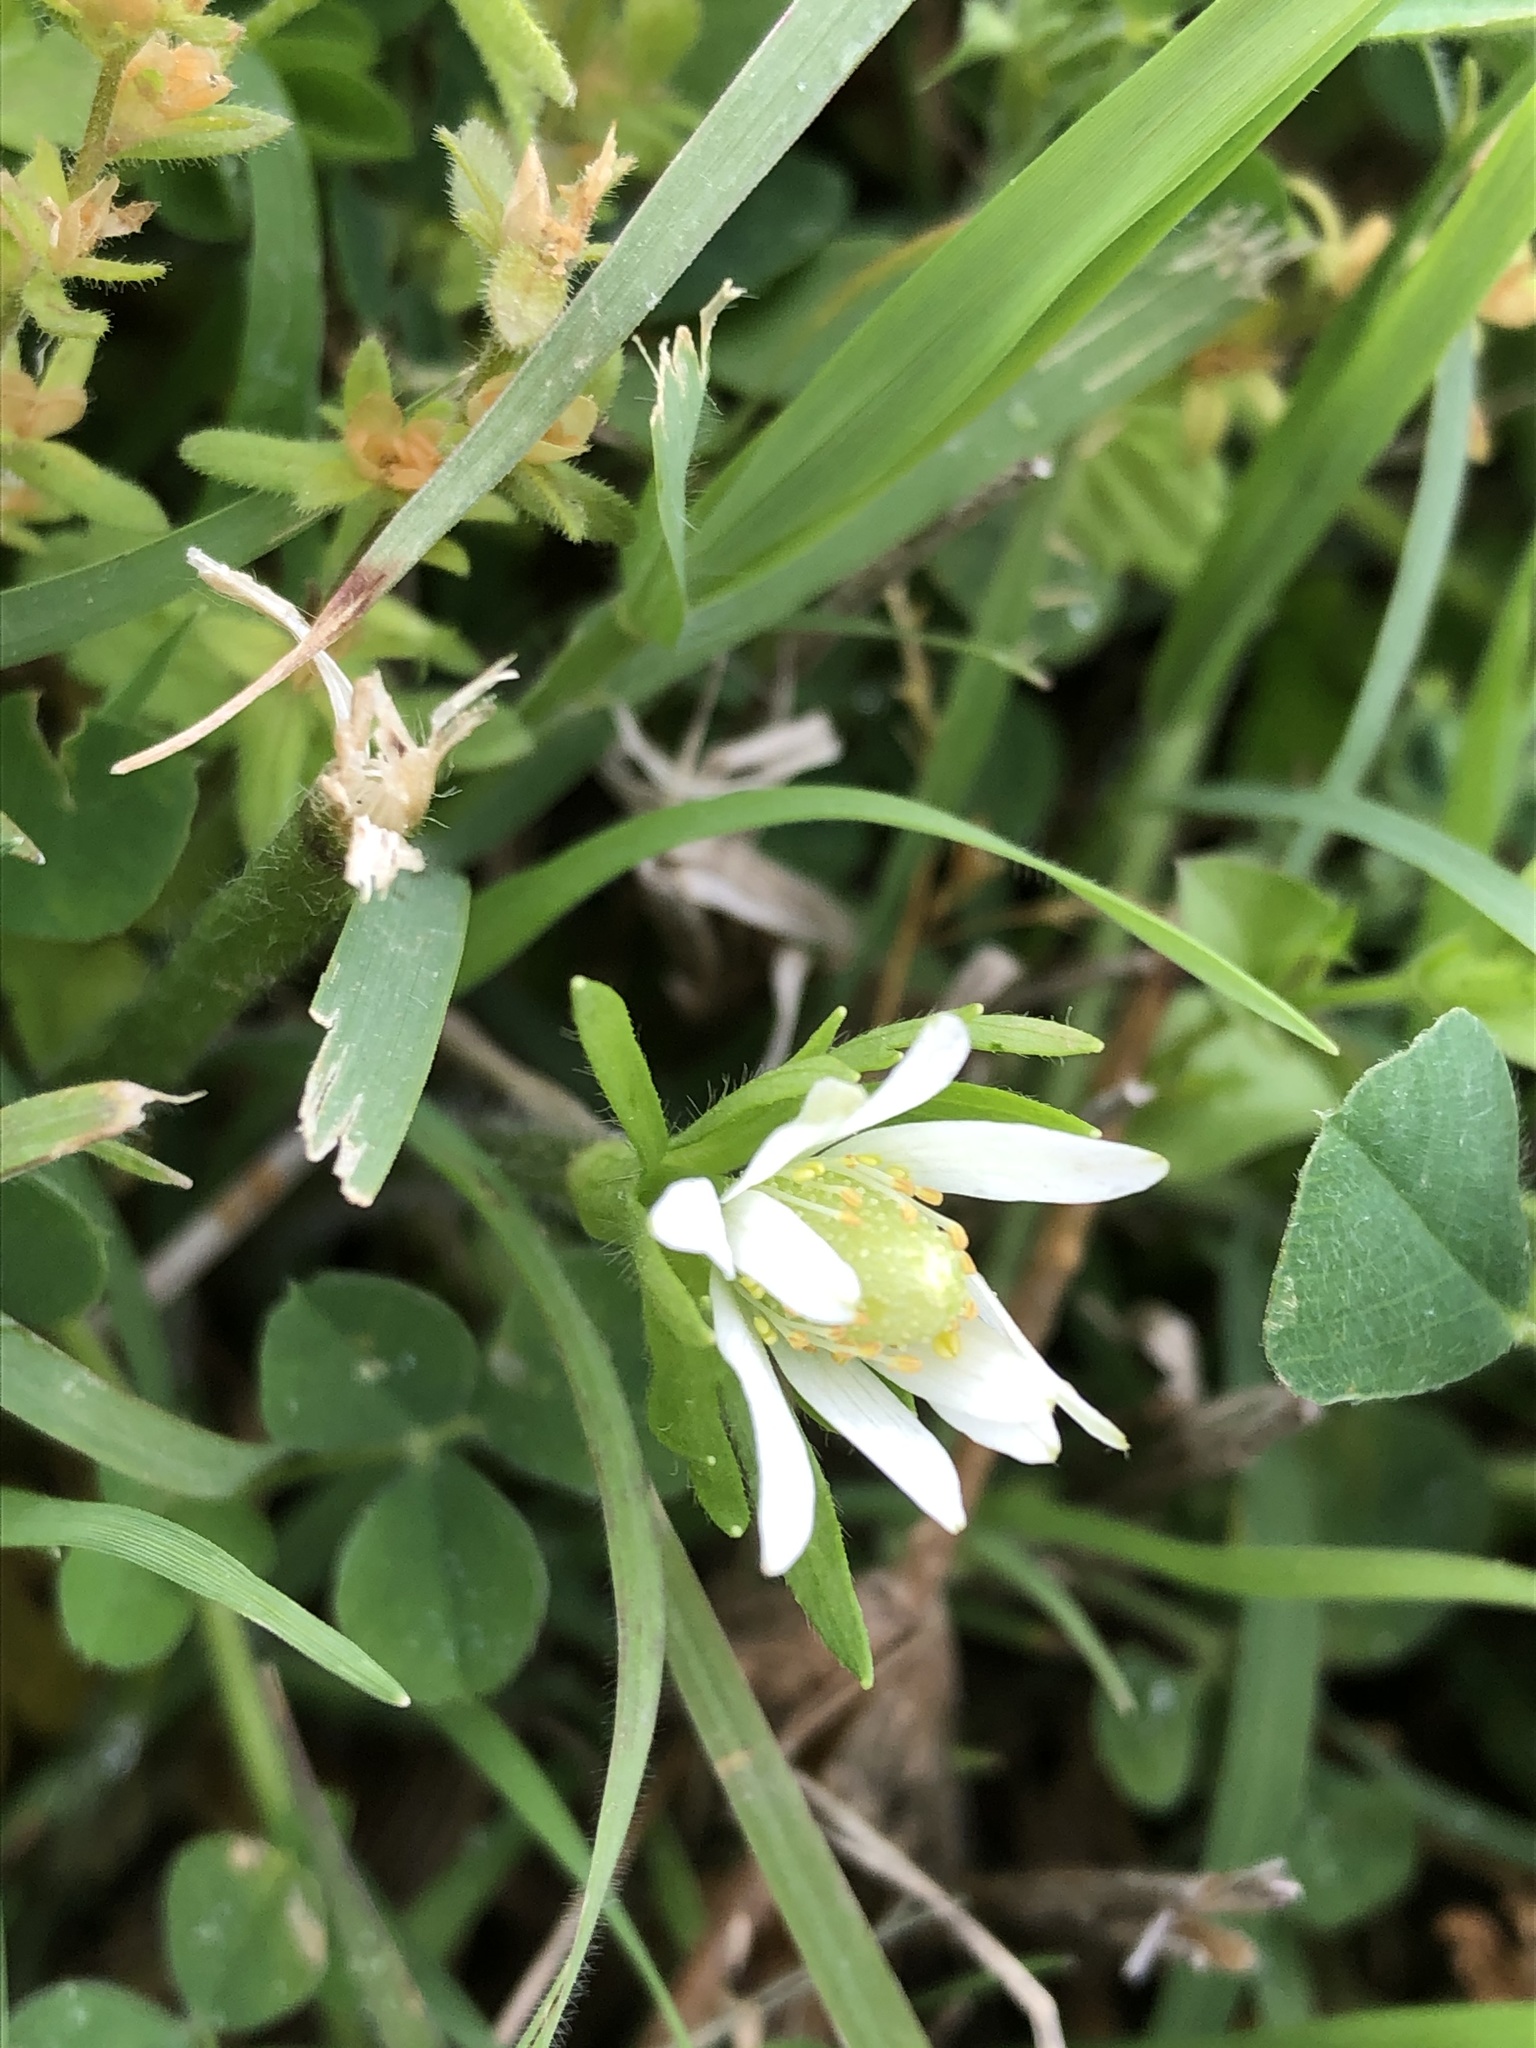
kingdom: Plantae
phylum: Tracheophyta
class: Magnoliopsida
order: Ranunculales
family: Ranunculaceae
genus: Anemone
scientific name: Anemone berlandieri
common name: Ten-petal anemone
